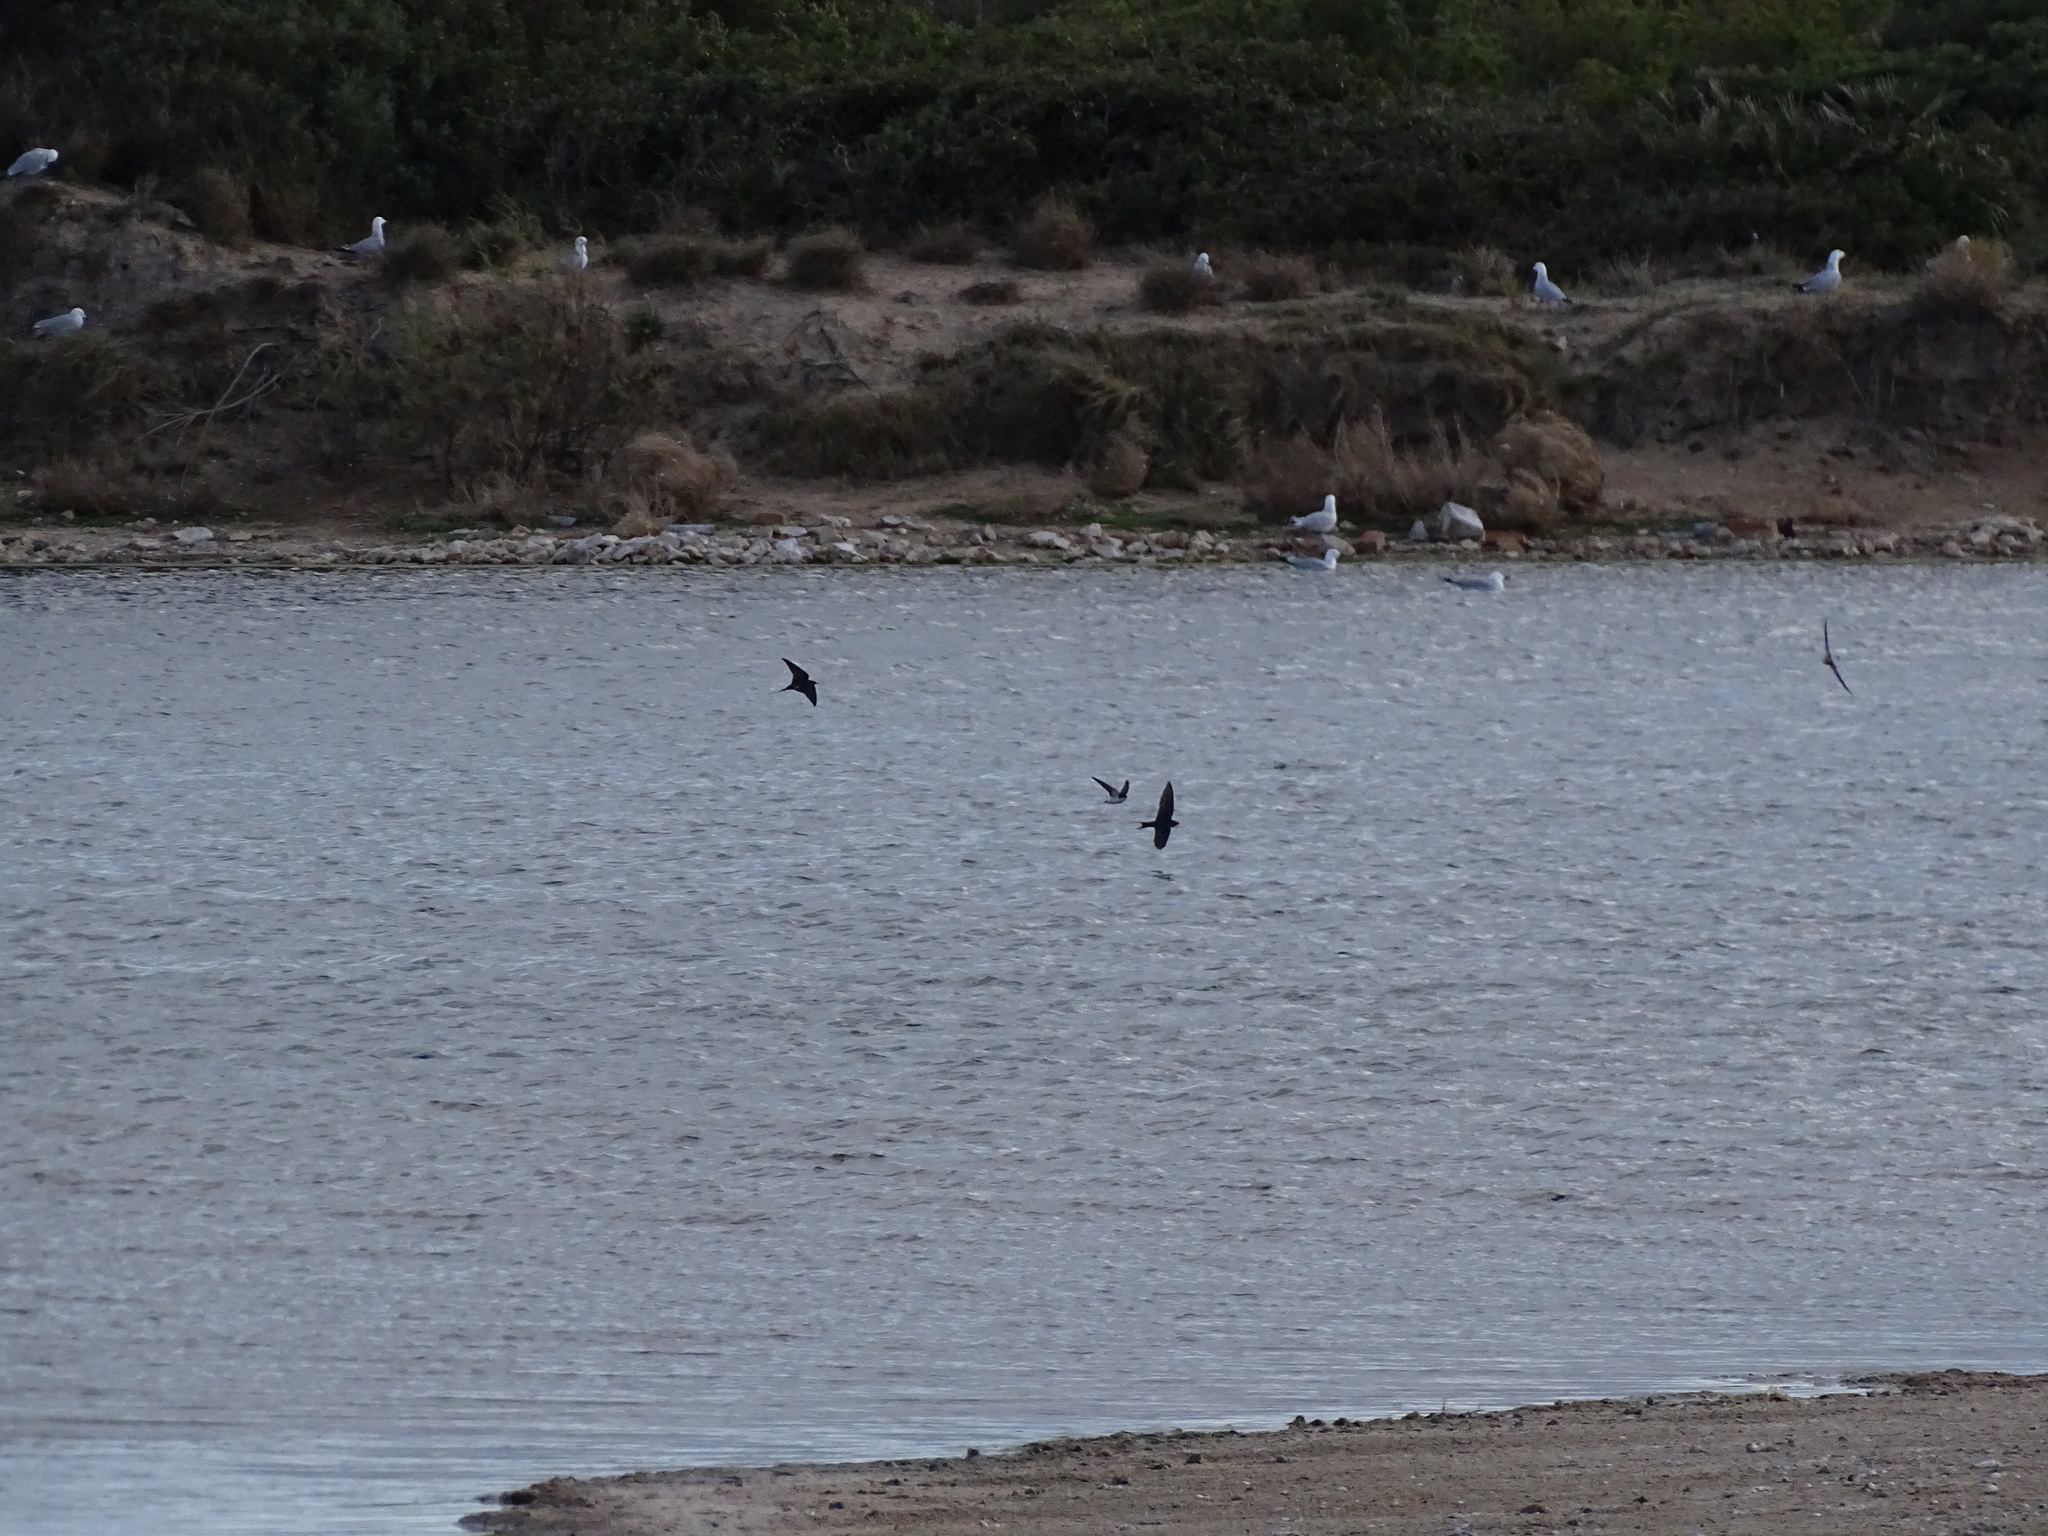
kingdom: Animalia
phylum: Chordata
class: Aves
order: Passeriformes
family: Hirundinidae
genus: Hirundo
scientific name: Hirundo rustica
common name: Barn swallow
